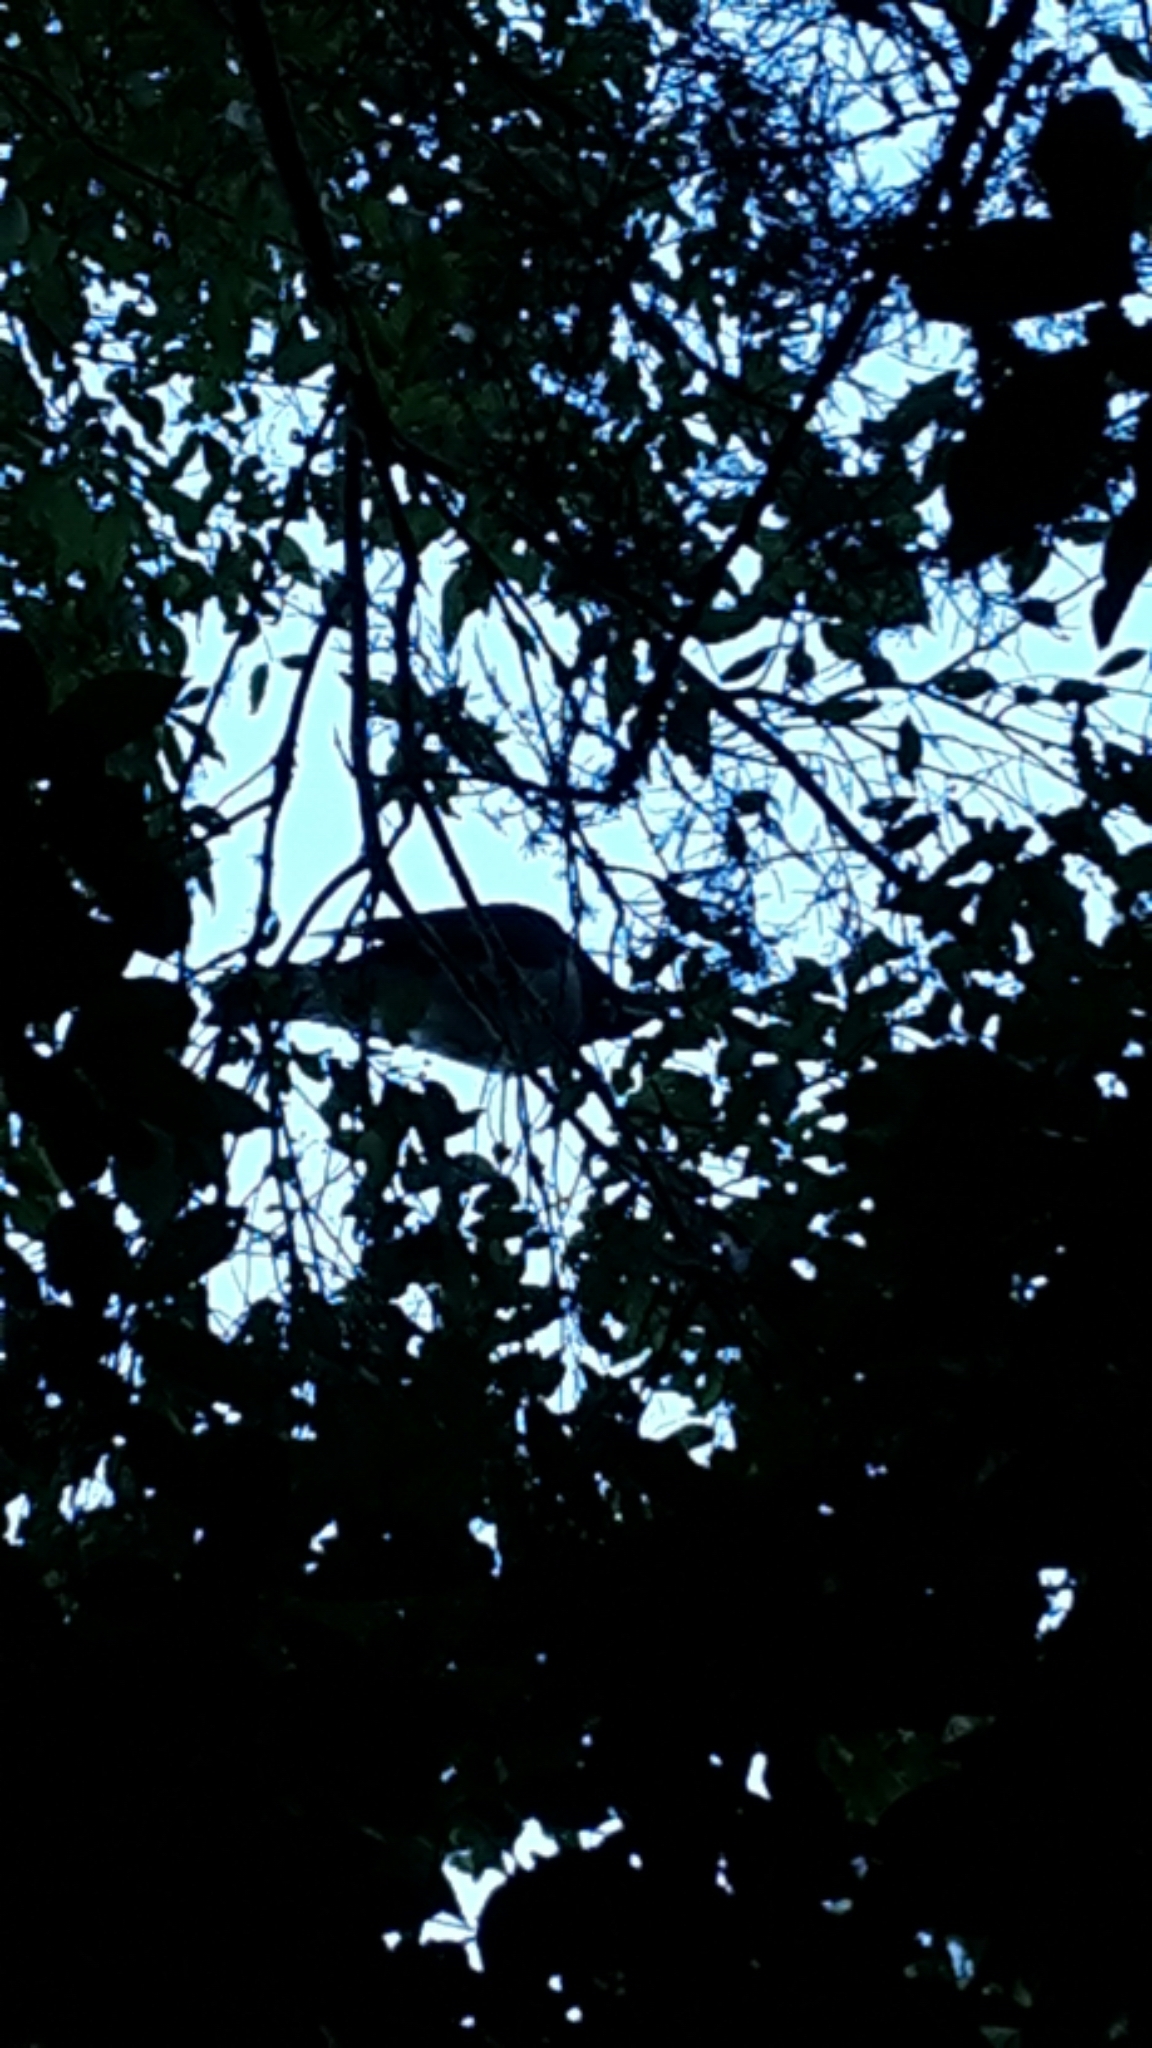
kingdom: Animalia
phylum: Chordata
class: Aves
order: Columbiformes
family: Columbidae
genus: Hemiphaga
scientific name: Hemiphaga novaeseelandiae
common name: New zealand pigeon
